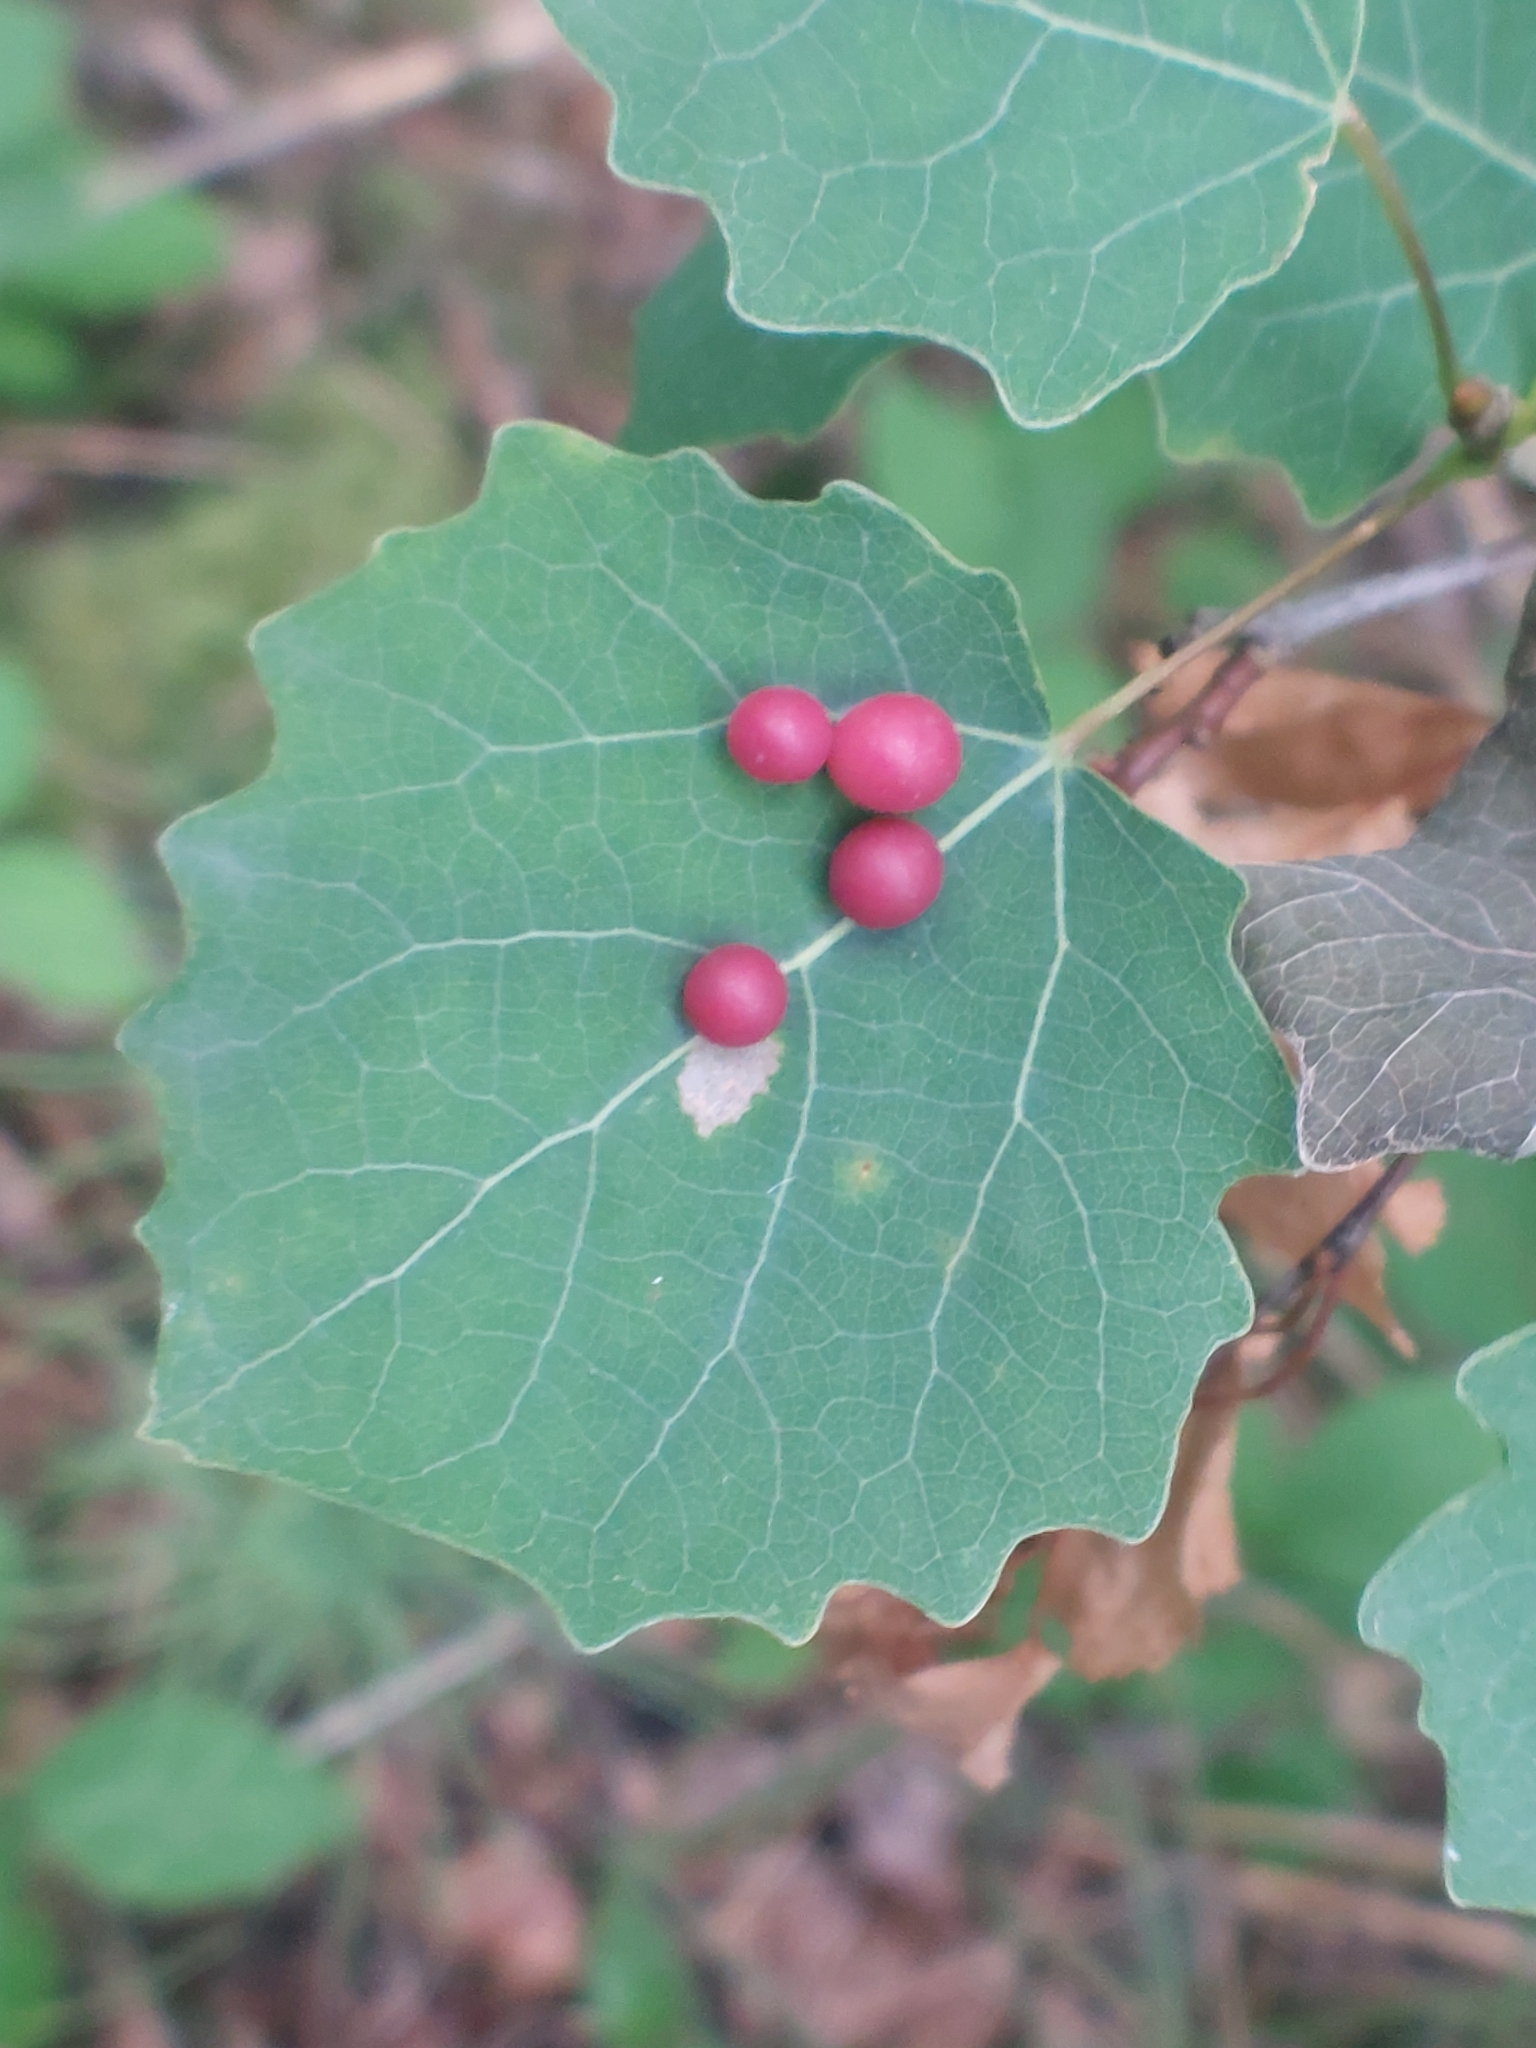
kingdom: Animalia
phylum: Arthropoda
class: Insecta
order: Diptera
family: Cecidomyiidae
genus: Harmandiola
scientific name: Harmandiola tremulae
